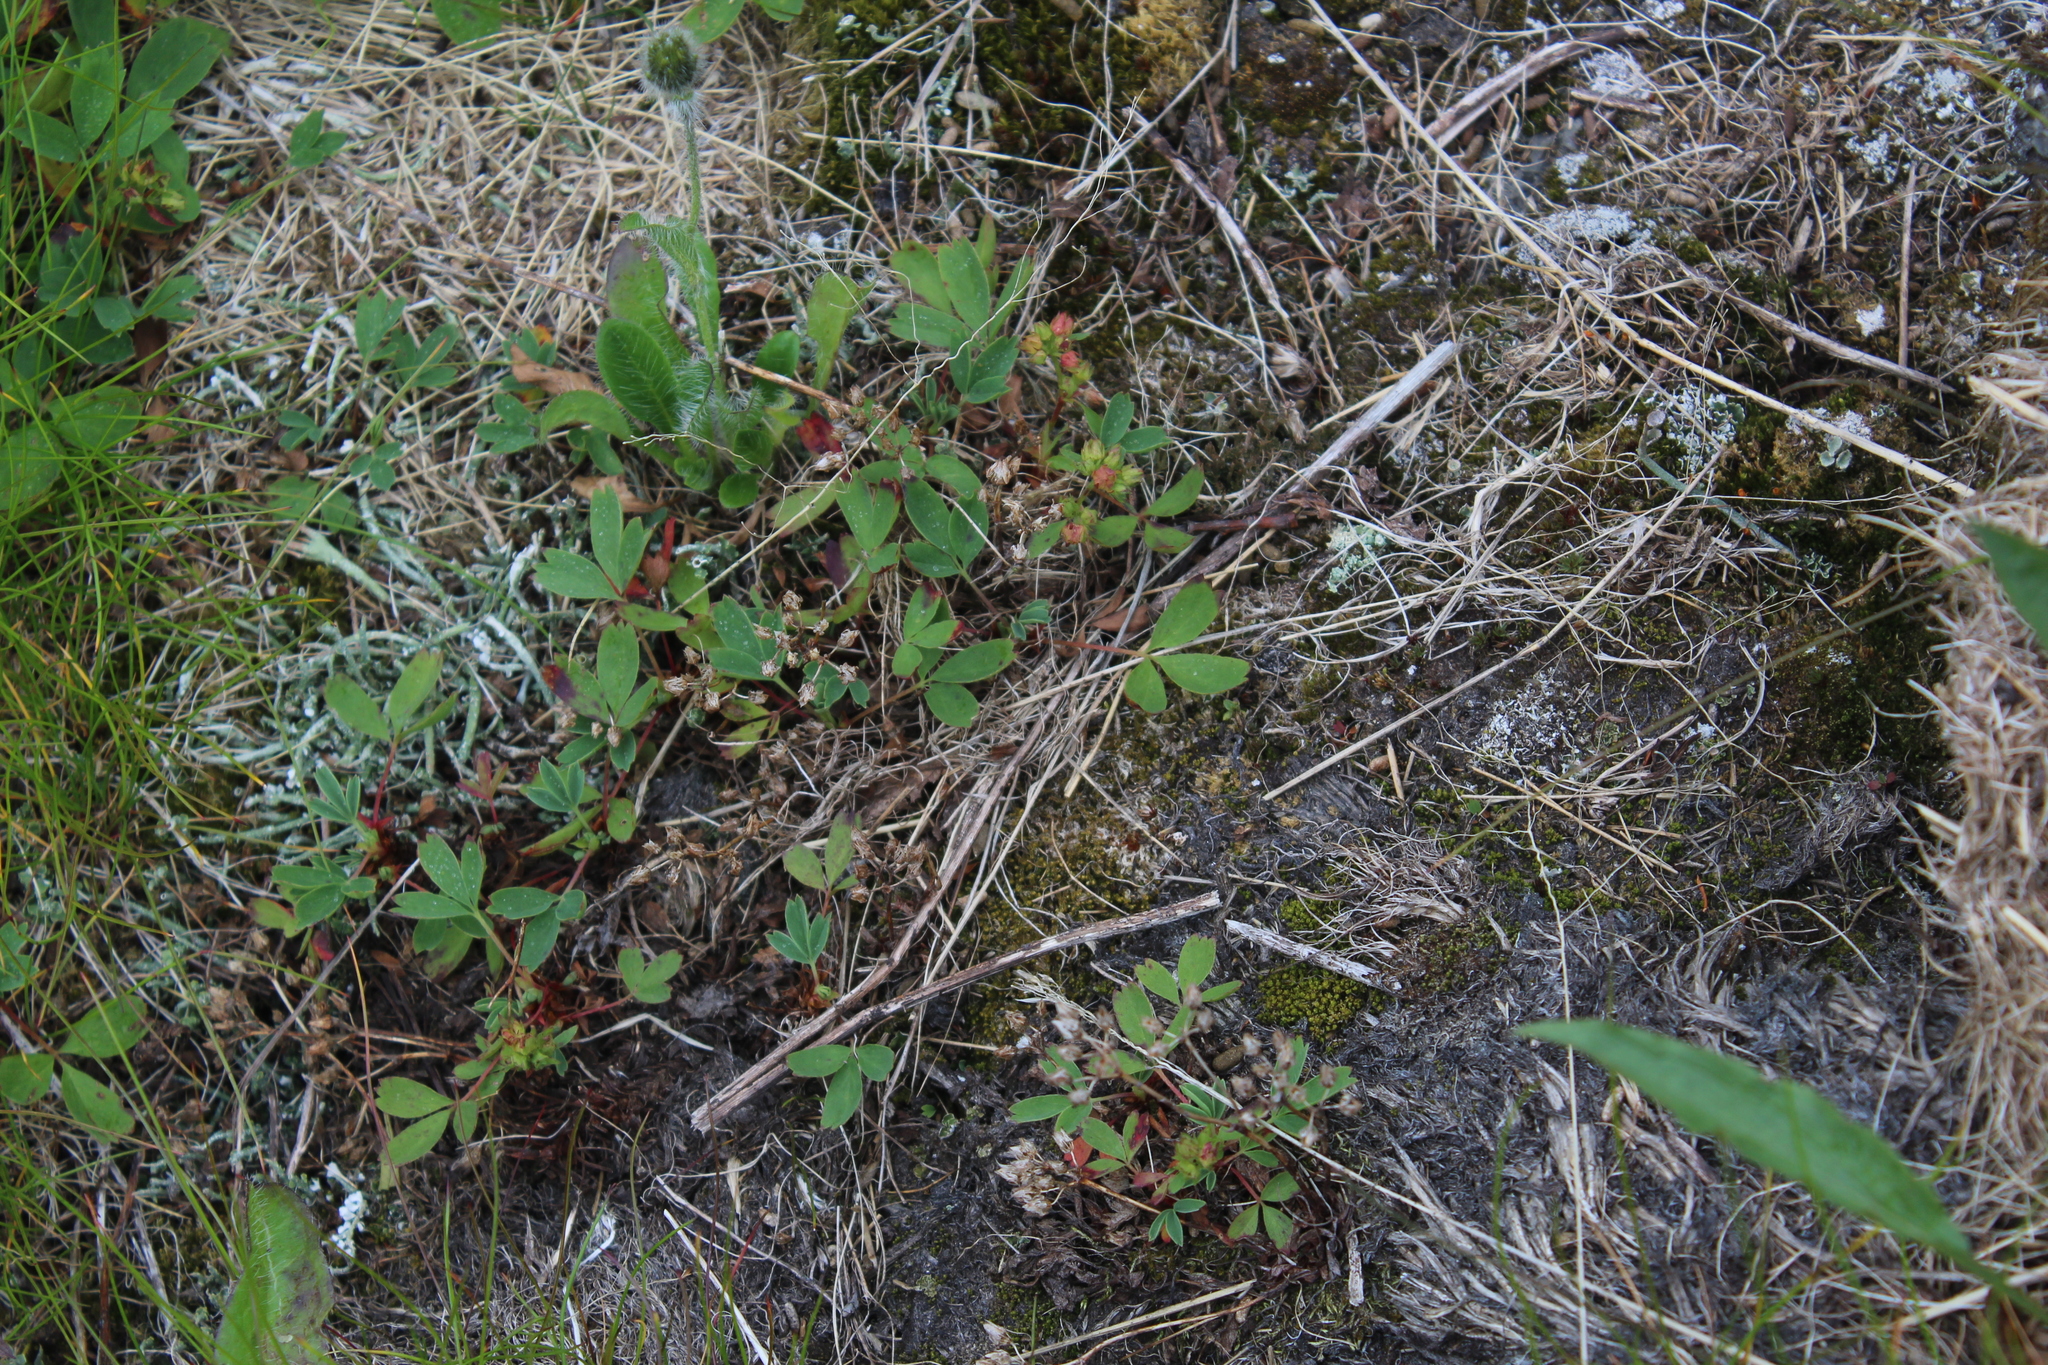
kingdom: Plantae
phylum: Tracheophyta
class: Magnoliopsida
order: Rosales
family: Rosaceae
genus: Sibbaldia
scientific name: Sibbaldia procumbens
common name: Creeping sibbaldia
